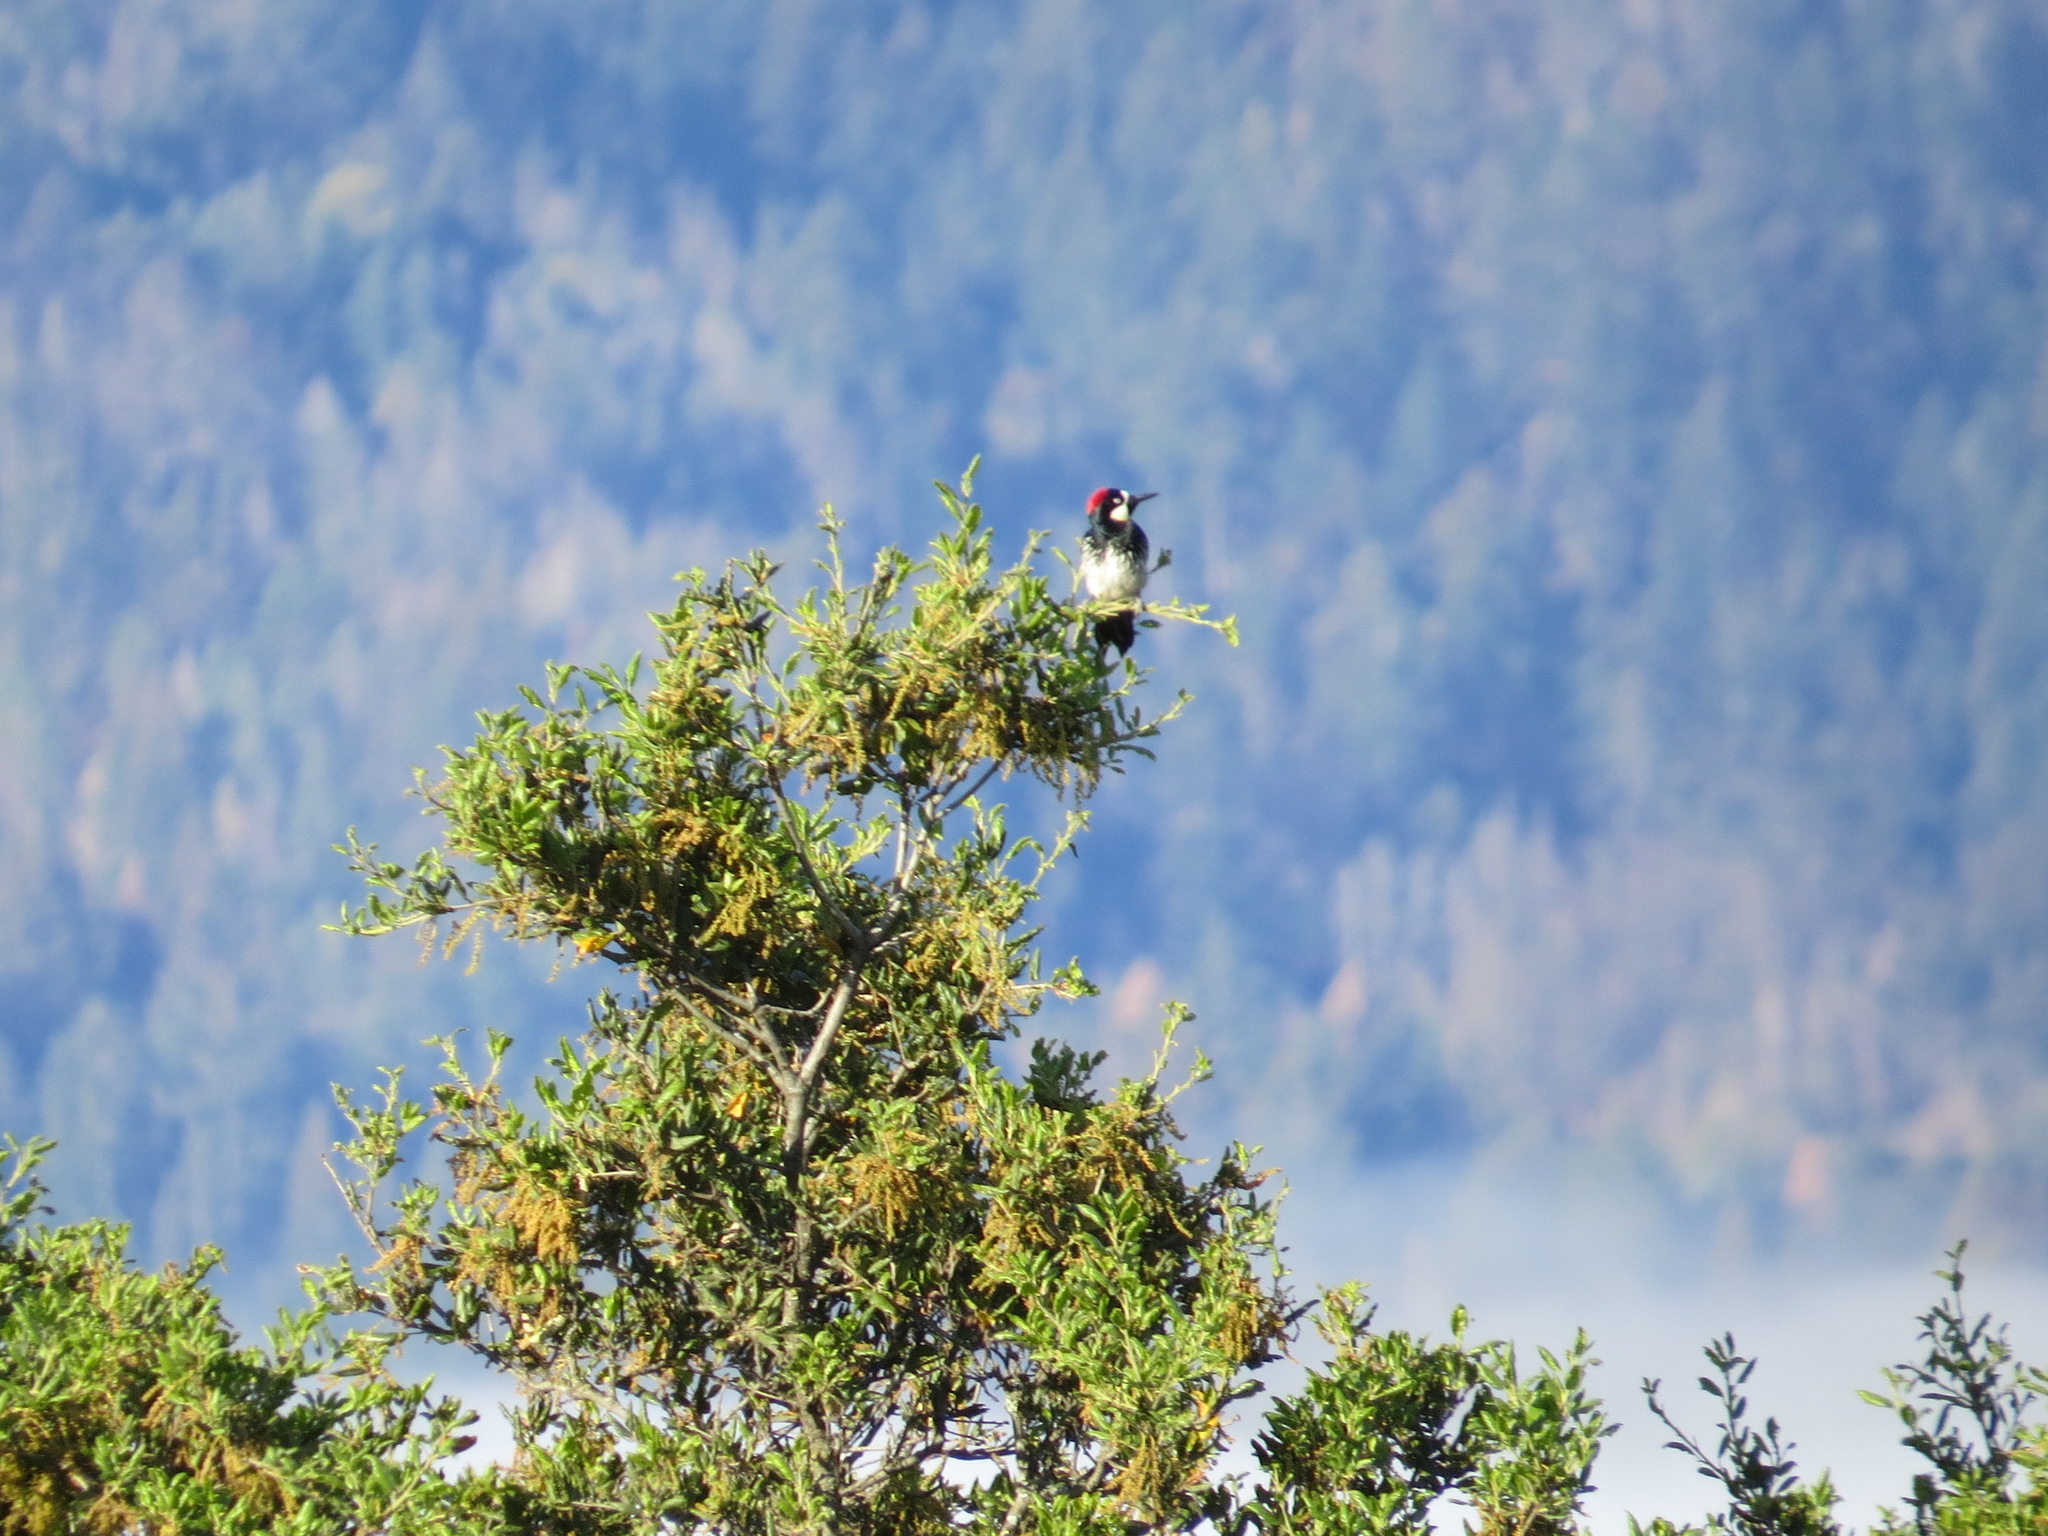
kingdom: Animalia
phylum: Chordata
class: Aves
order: Piciformes
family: Picidae
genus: Melanerpes
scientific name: Melanerpes formicivorus
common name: Acorn woodpecker
